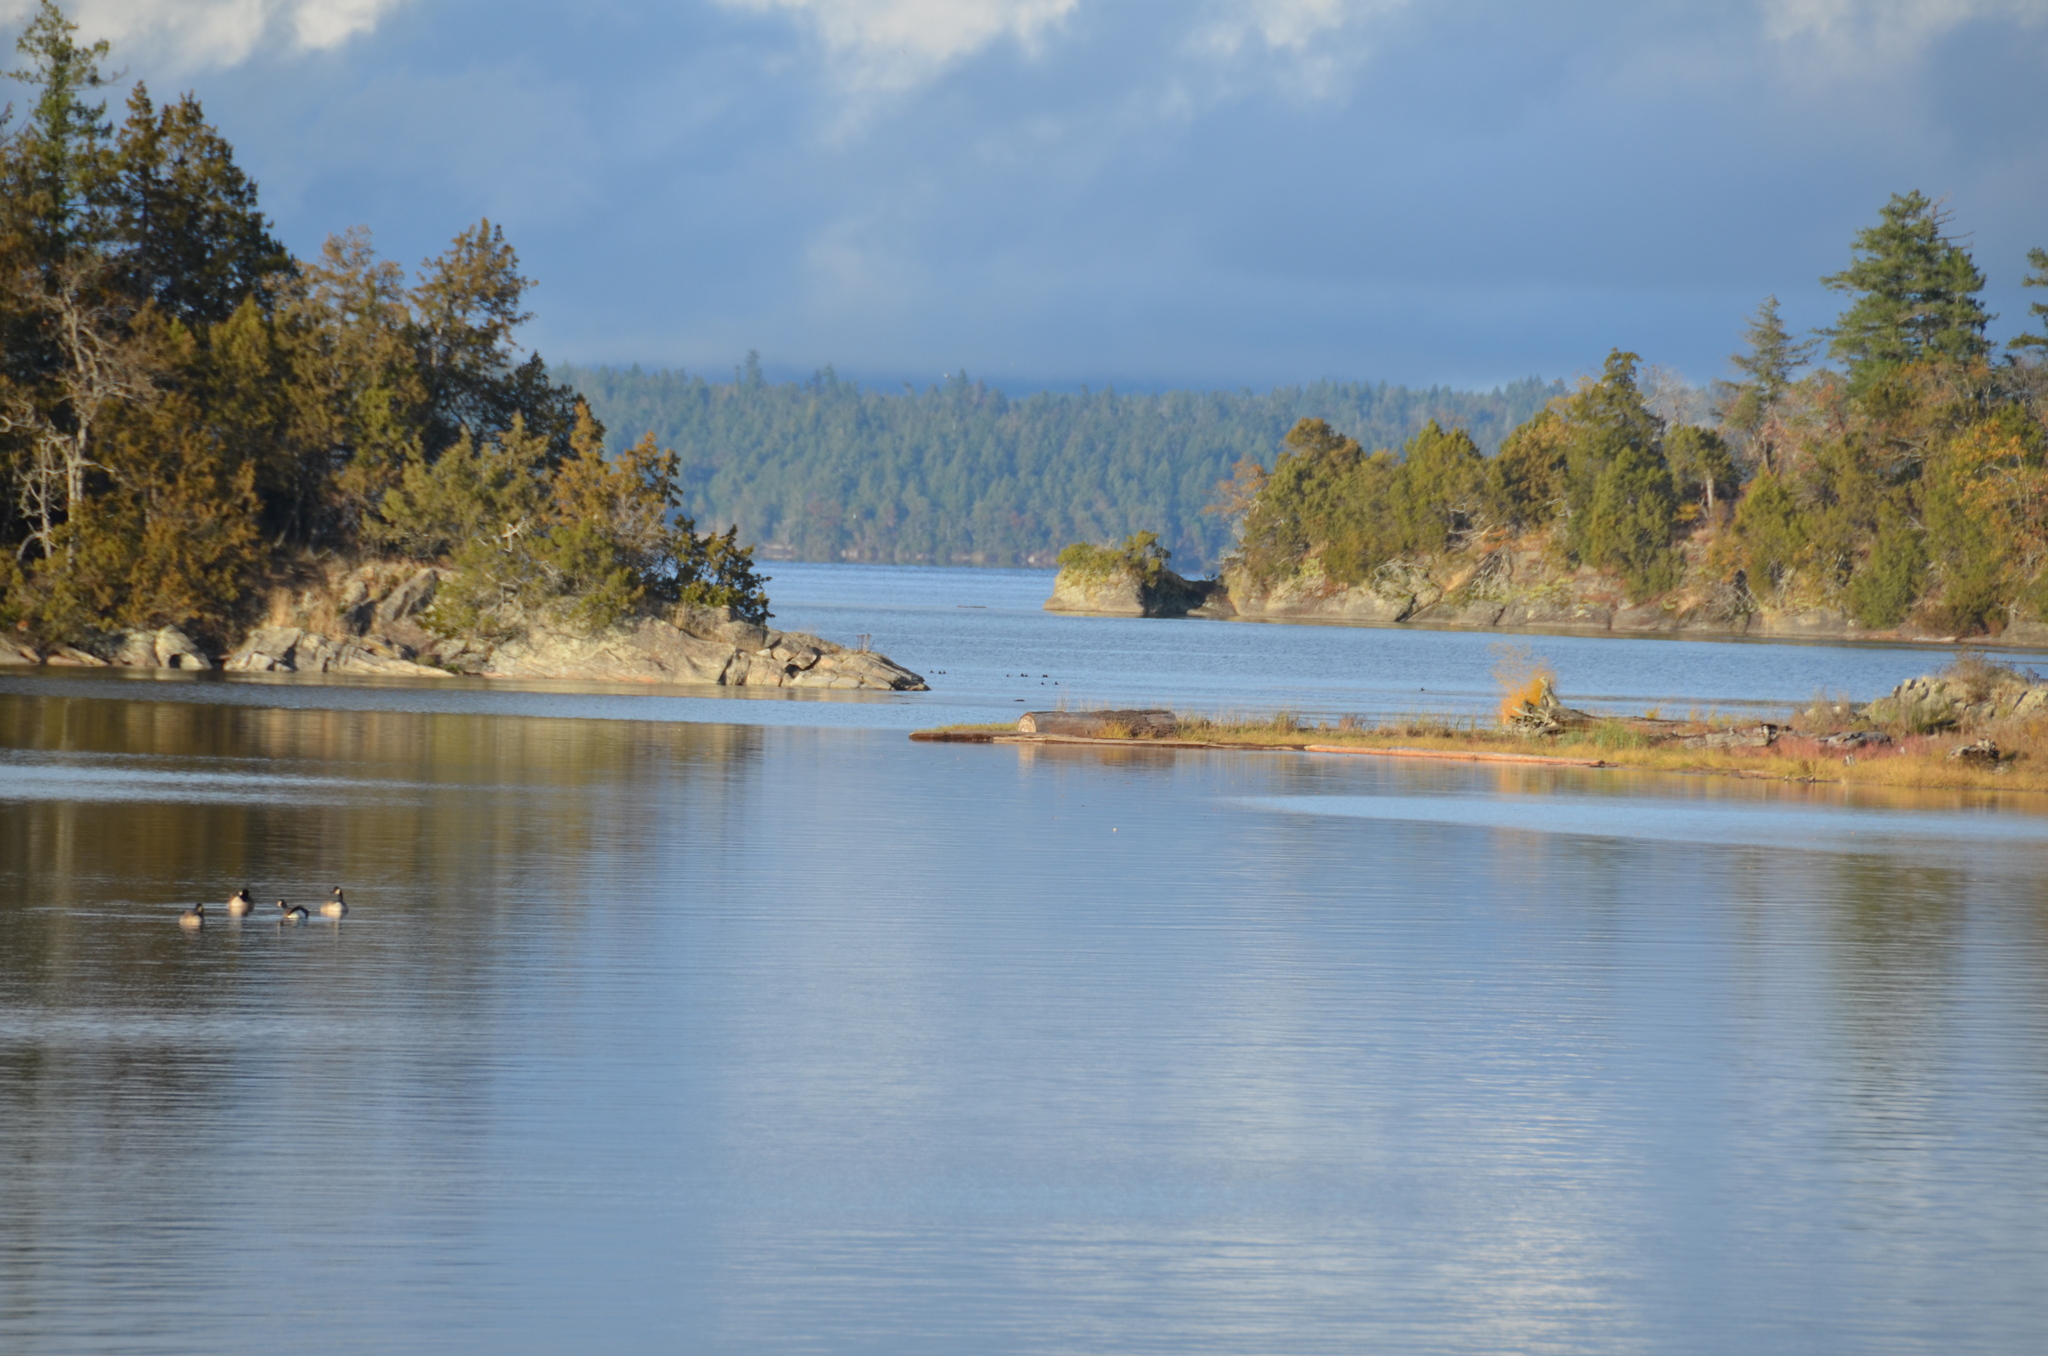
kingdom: Animalia
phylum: Chordata
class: Aves
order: Anseriformes
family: Anatidae
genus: Branta
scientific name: Branta canadensis
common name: Canada goose
